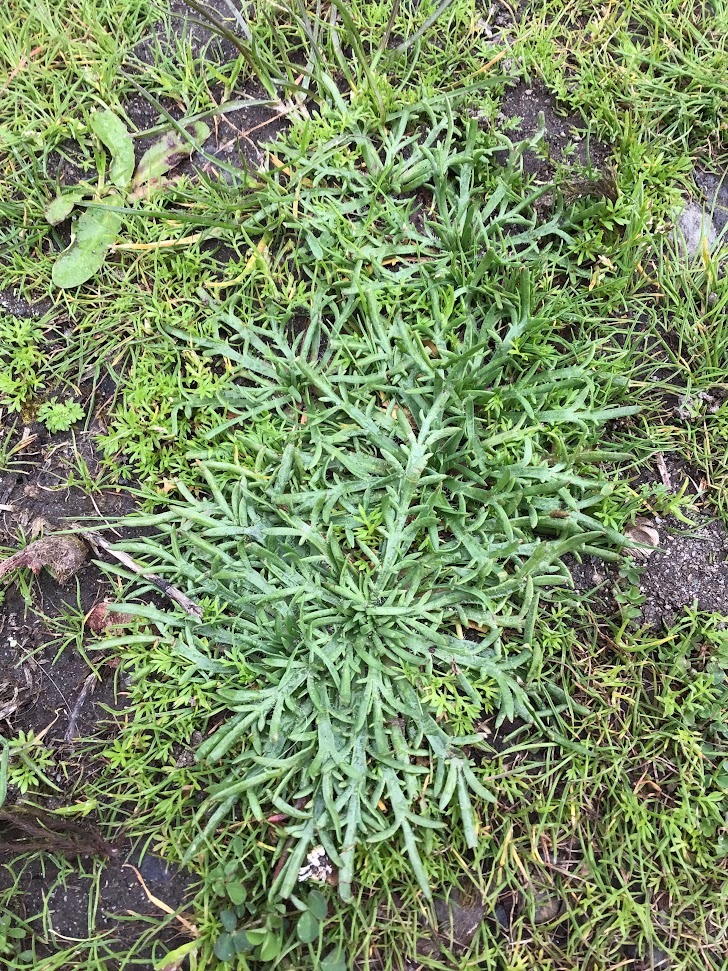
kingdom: Plantae
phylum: Tracheophyta
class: Magnoliopsida
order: Lamiales
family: Plantaginaceae
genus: Plantago
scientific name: Plantago coronopus
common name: Buck's-horn plantain
